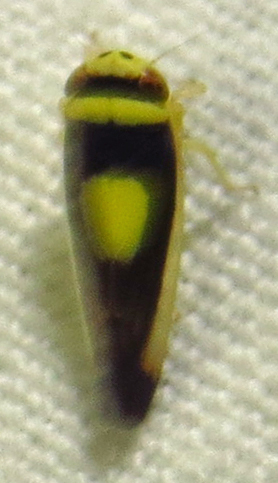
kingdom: Animalia
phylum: Arthropoda
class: Insecta
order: Hemiptera
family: Cicadellidae
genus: Colladonus
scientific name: Colladonus clitellarius
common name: The saddleback leafhopper
